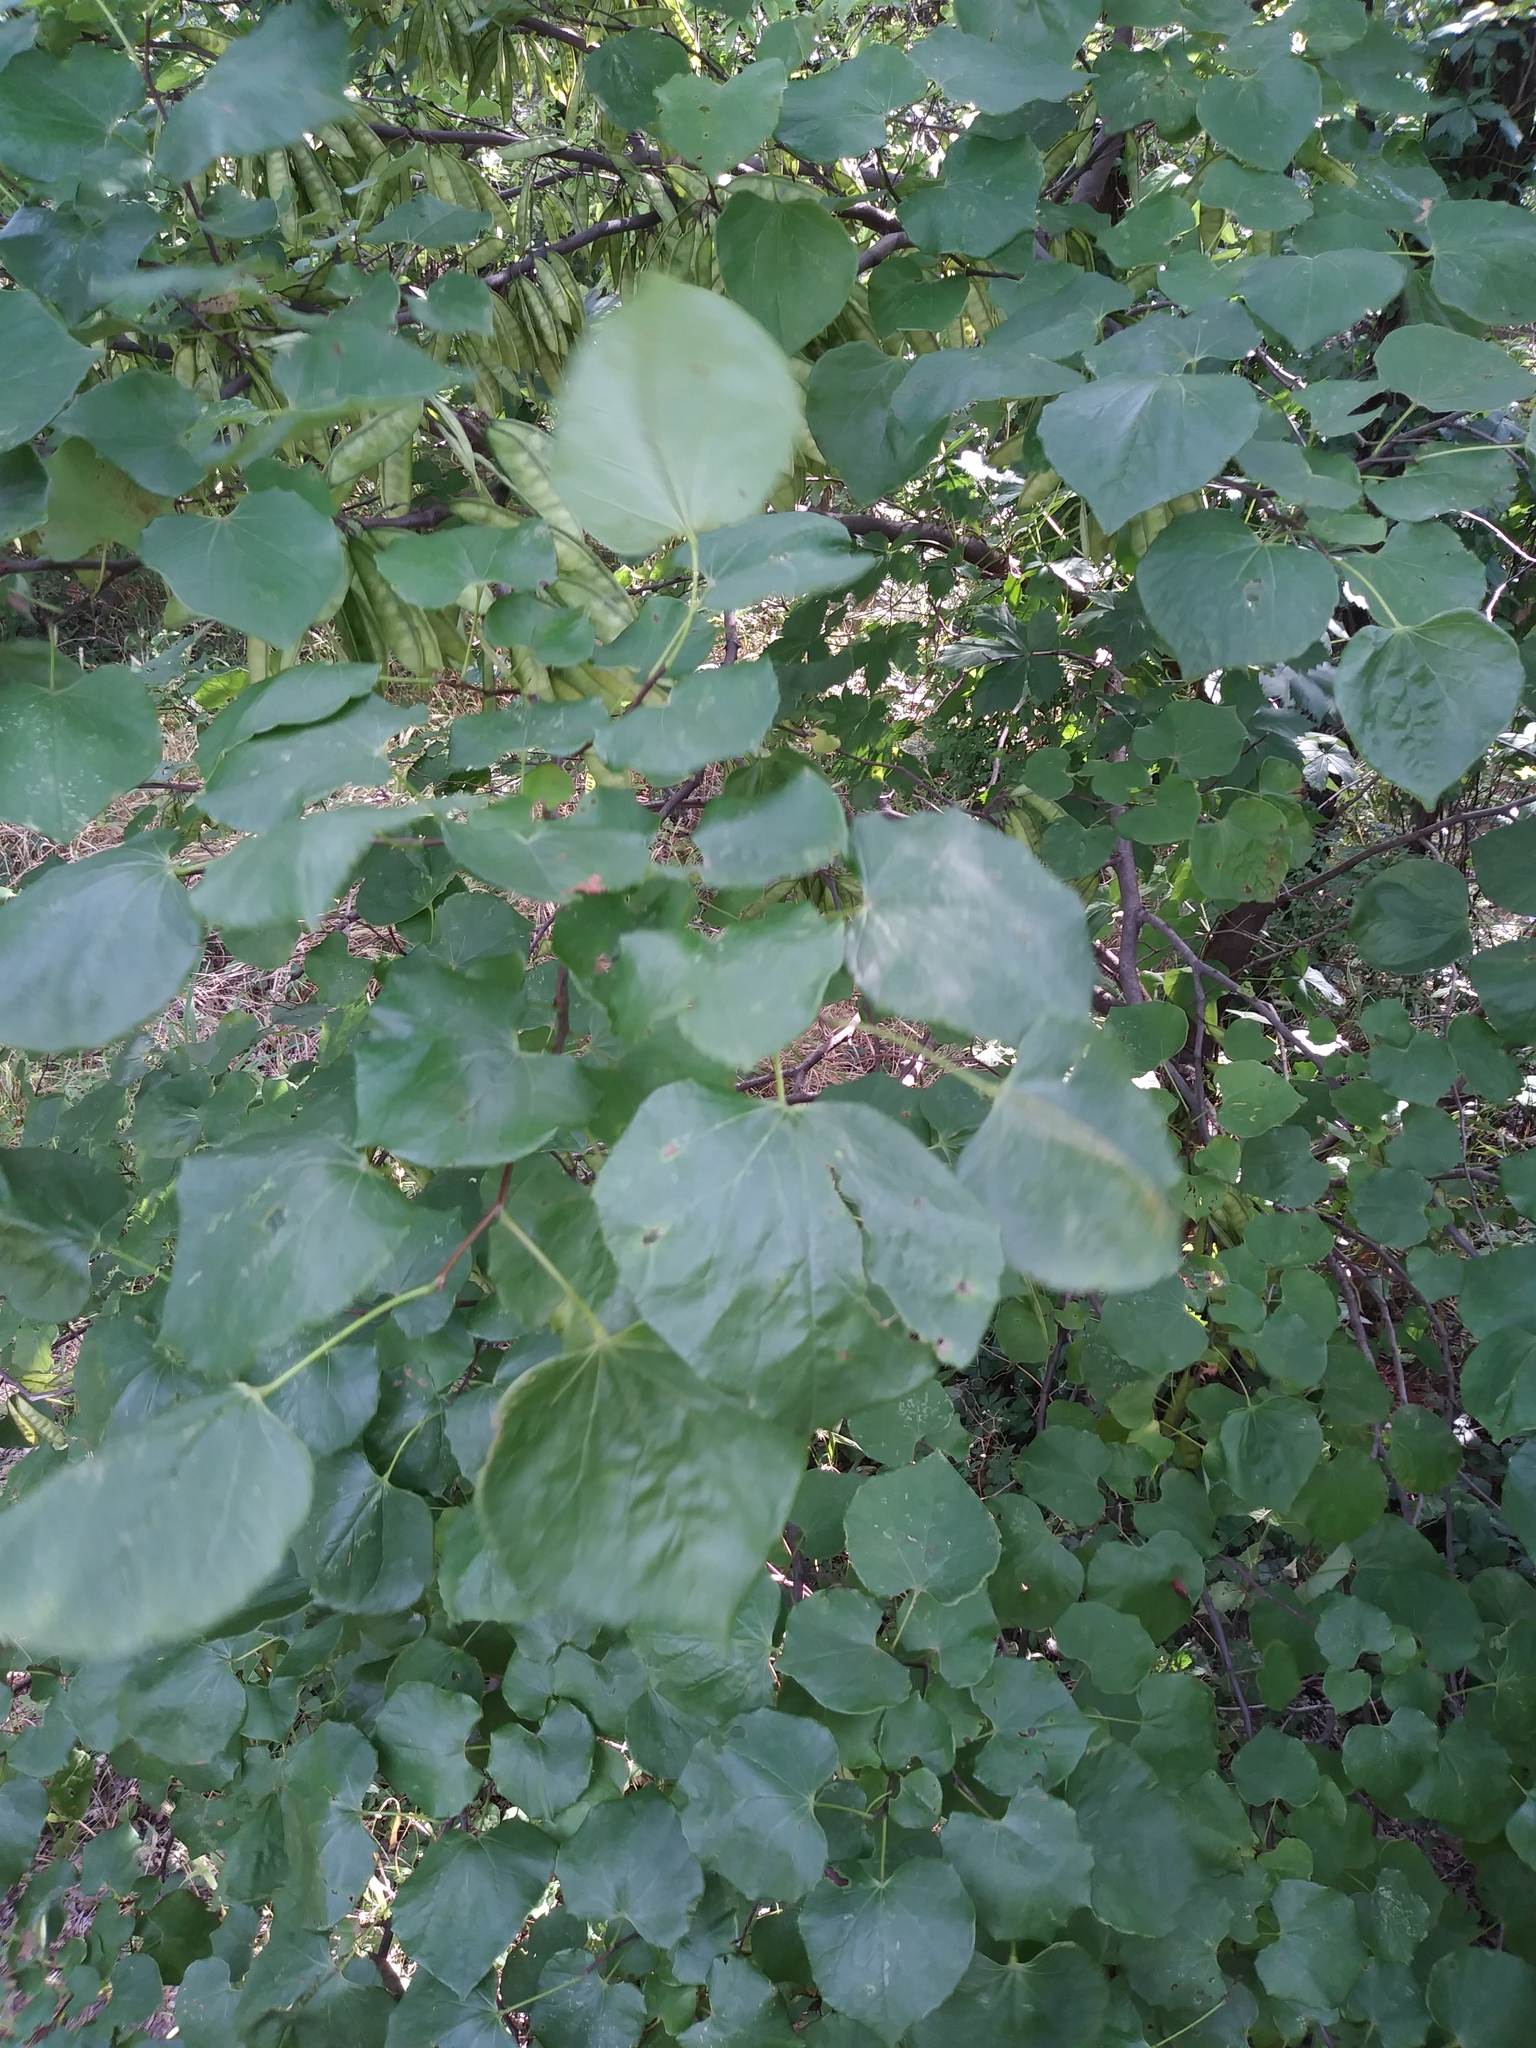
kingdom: Plantae
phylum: Tracheophyta
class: Magnoliopsida
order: Fabales
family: Fabaceae
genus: Cercis
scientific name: Cercis canadensis
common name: Eastern redbud
